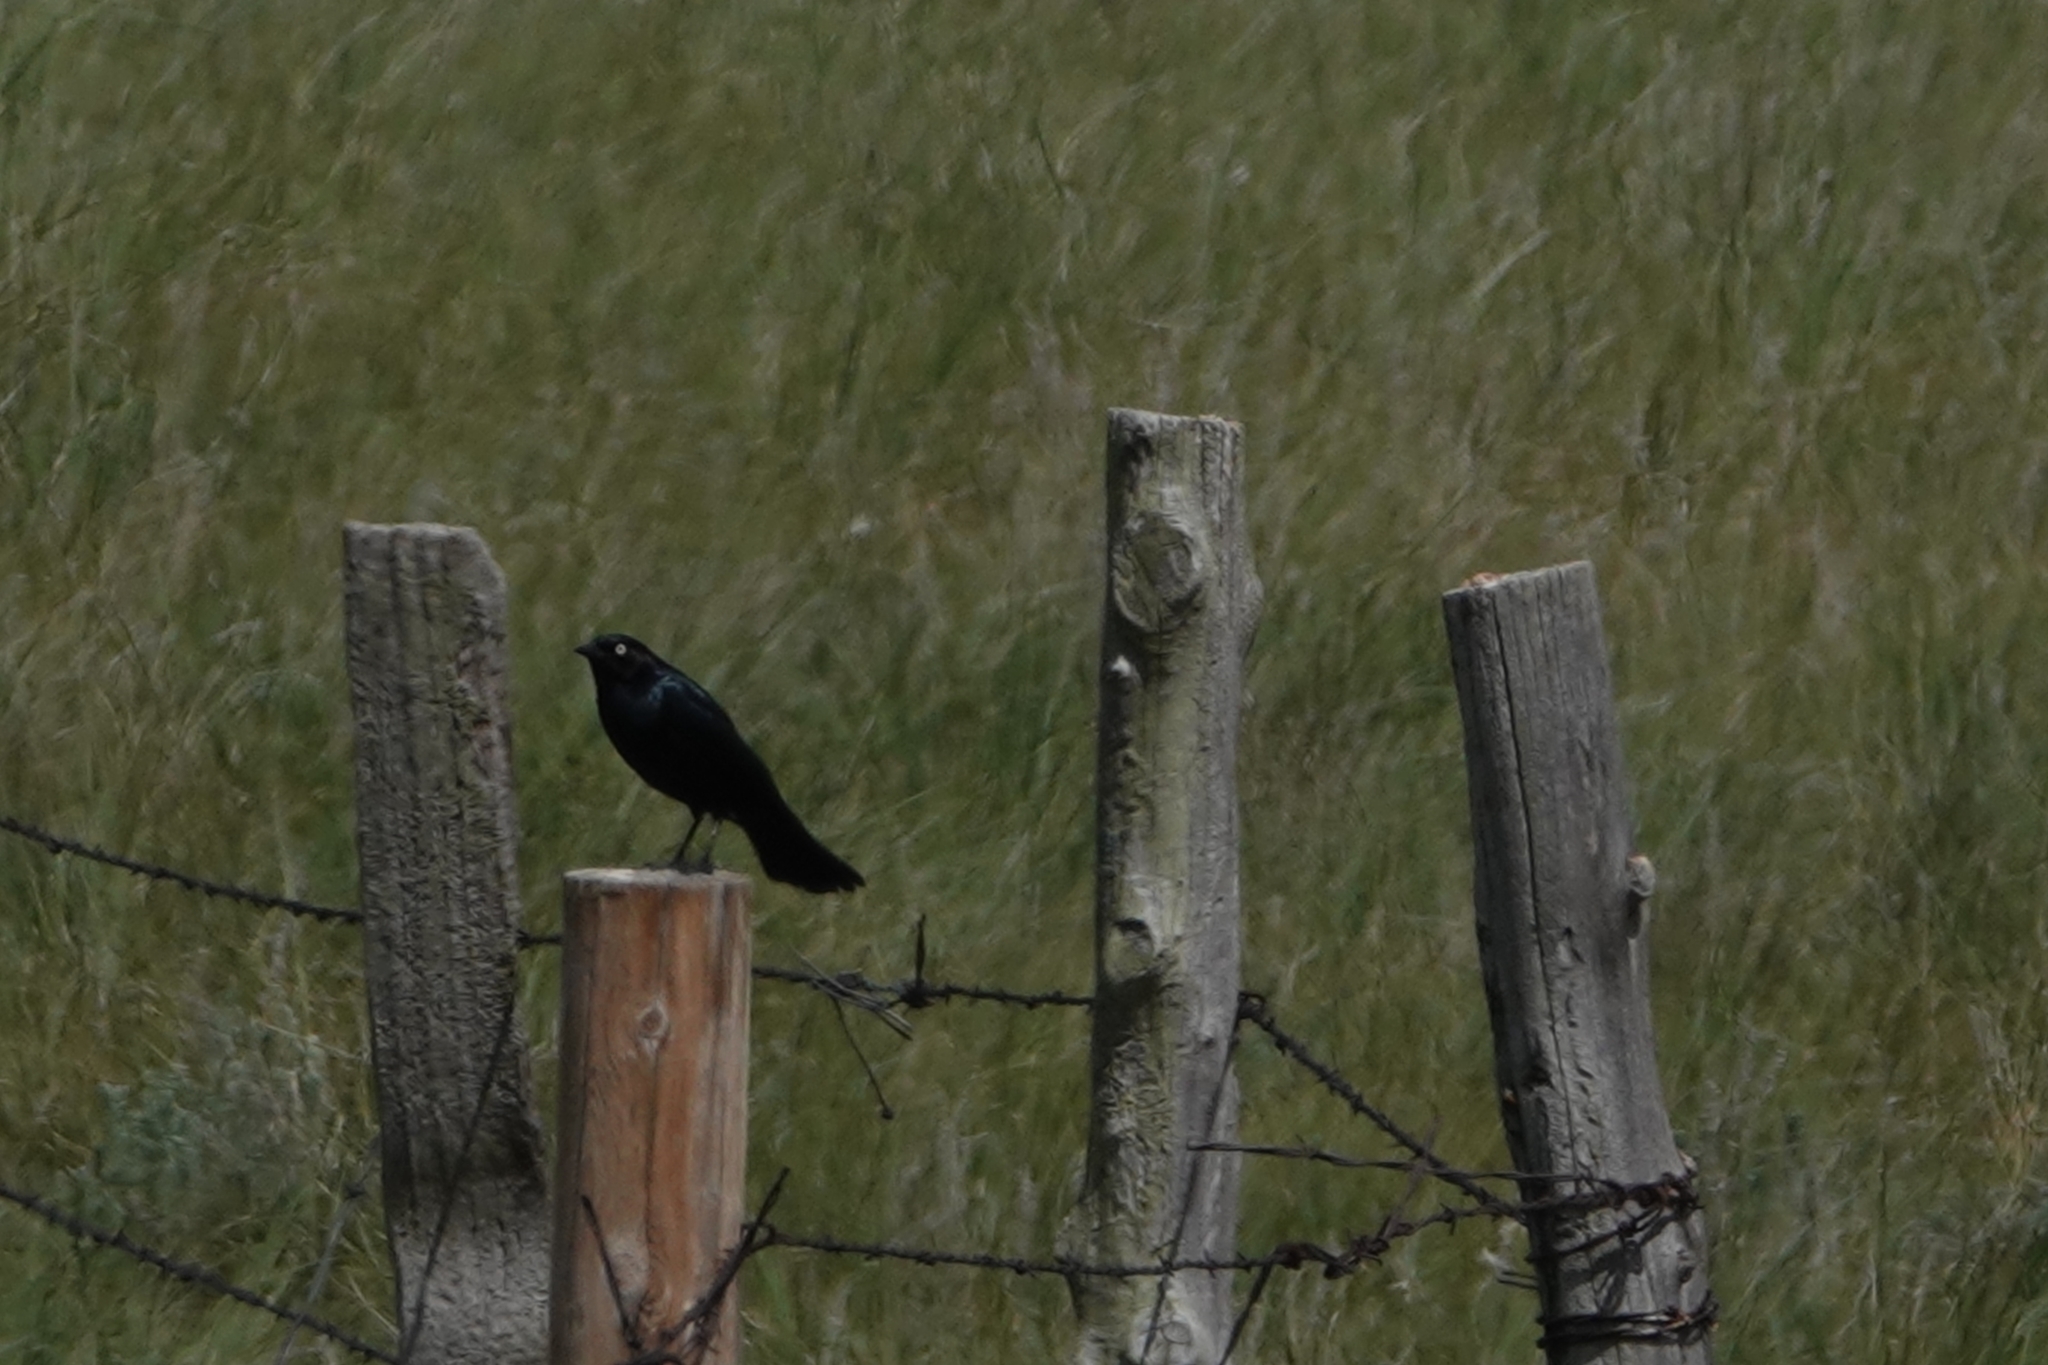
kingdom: Animalia
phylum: Chordata
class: Aves
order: Passeriformes
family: Icteridae
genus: Euphagus
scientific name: Euphagus cyanocephalus
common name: Brewer's blackbird
